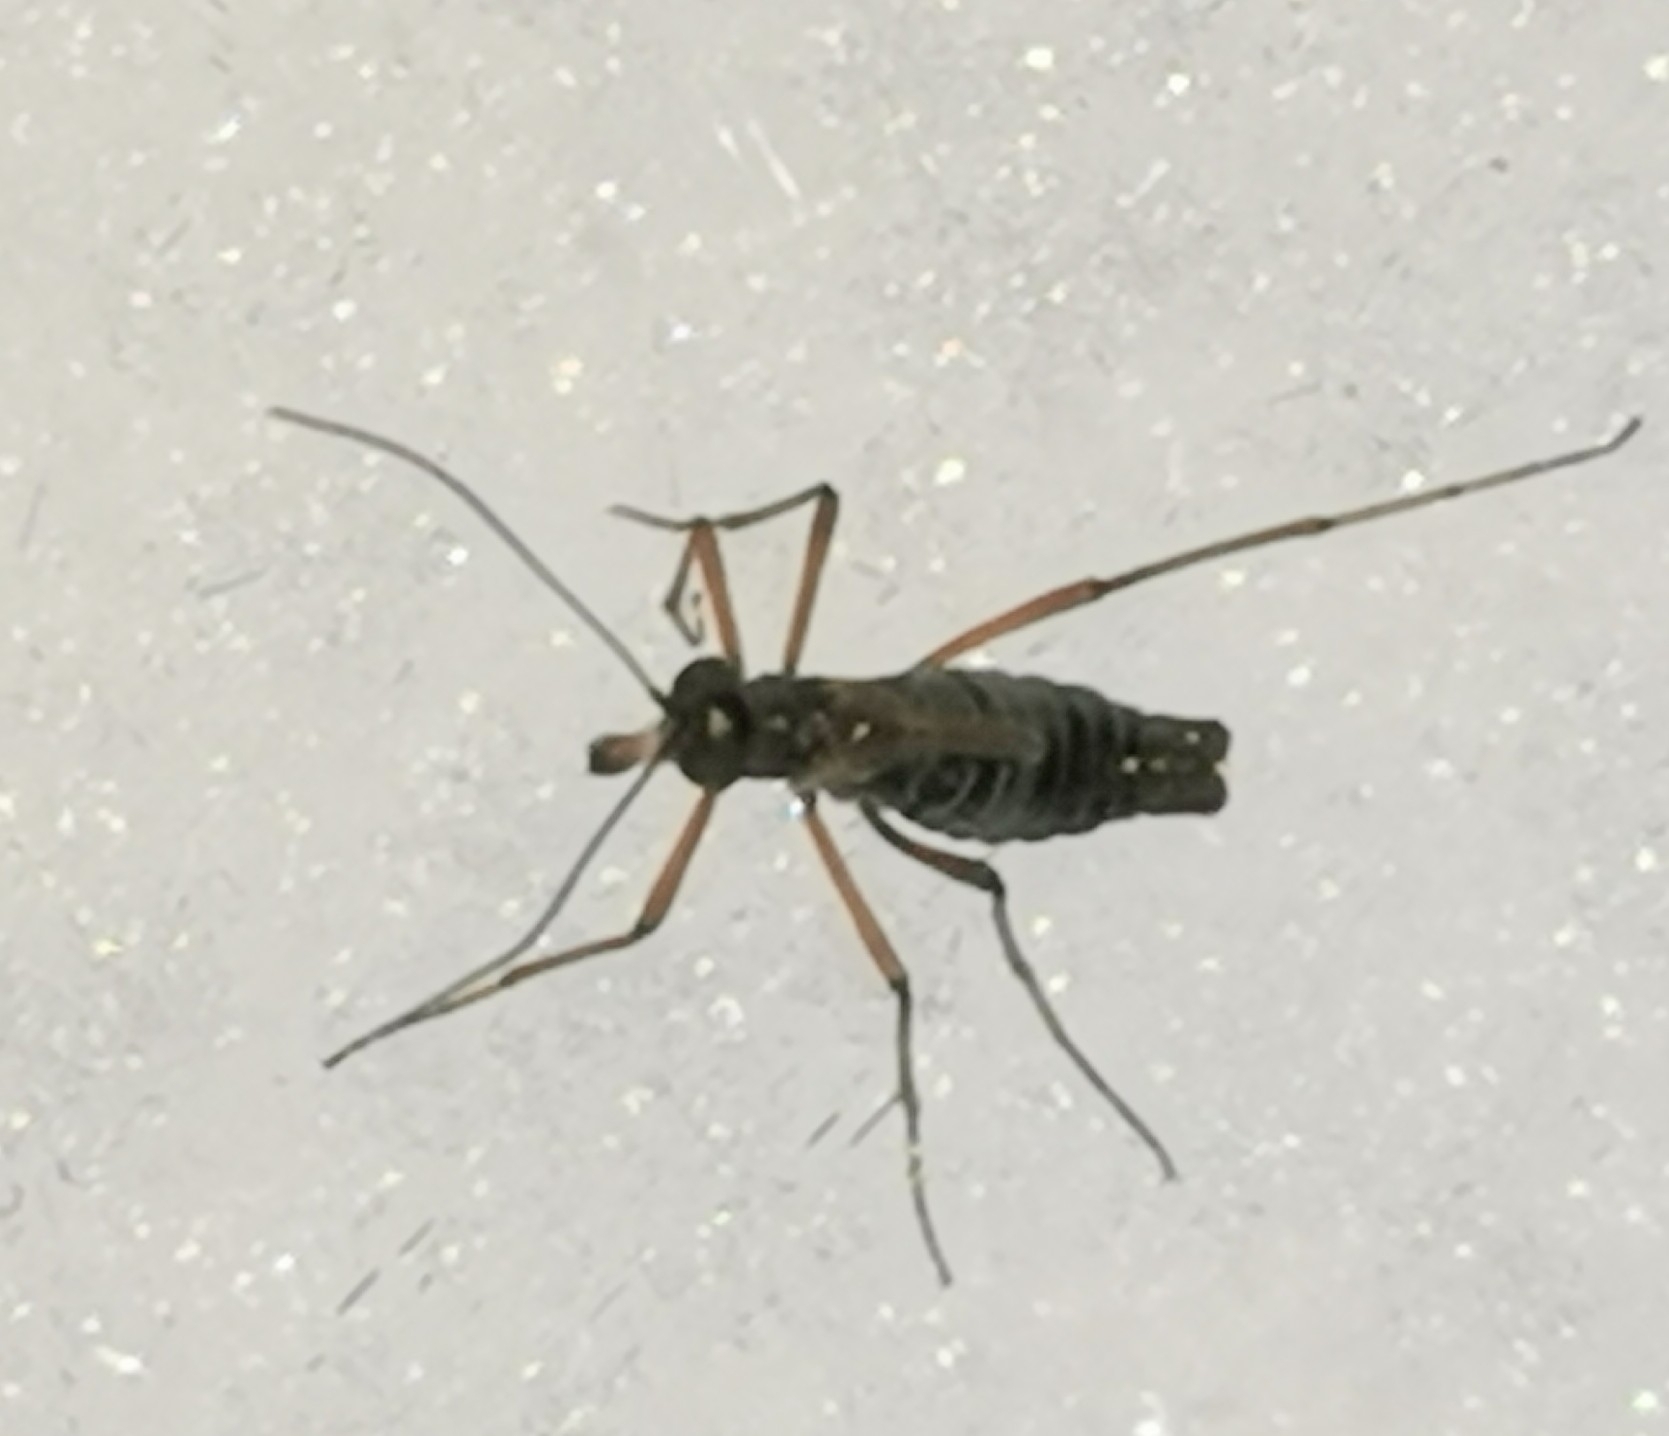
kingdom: Animalia
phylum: Arthropoda
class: Insecta
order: Mecoptera
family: Boreidae
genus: Boreus
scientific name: Boreus westwoodi
